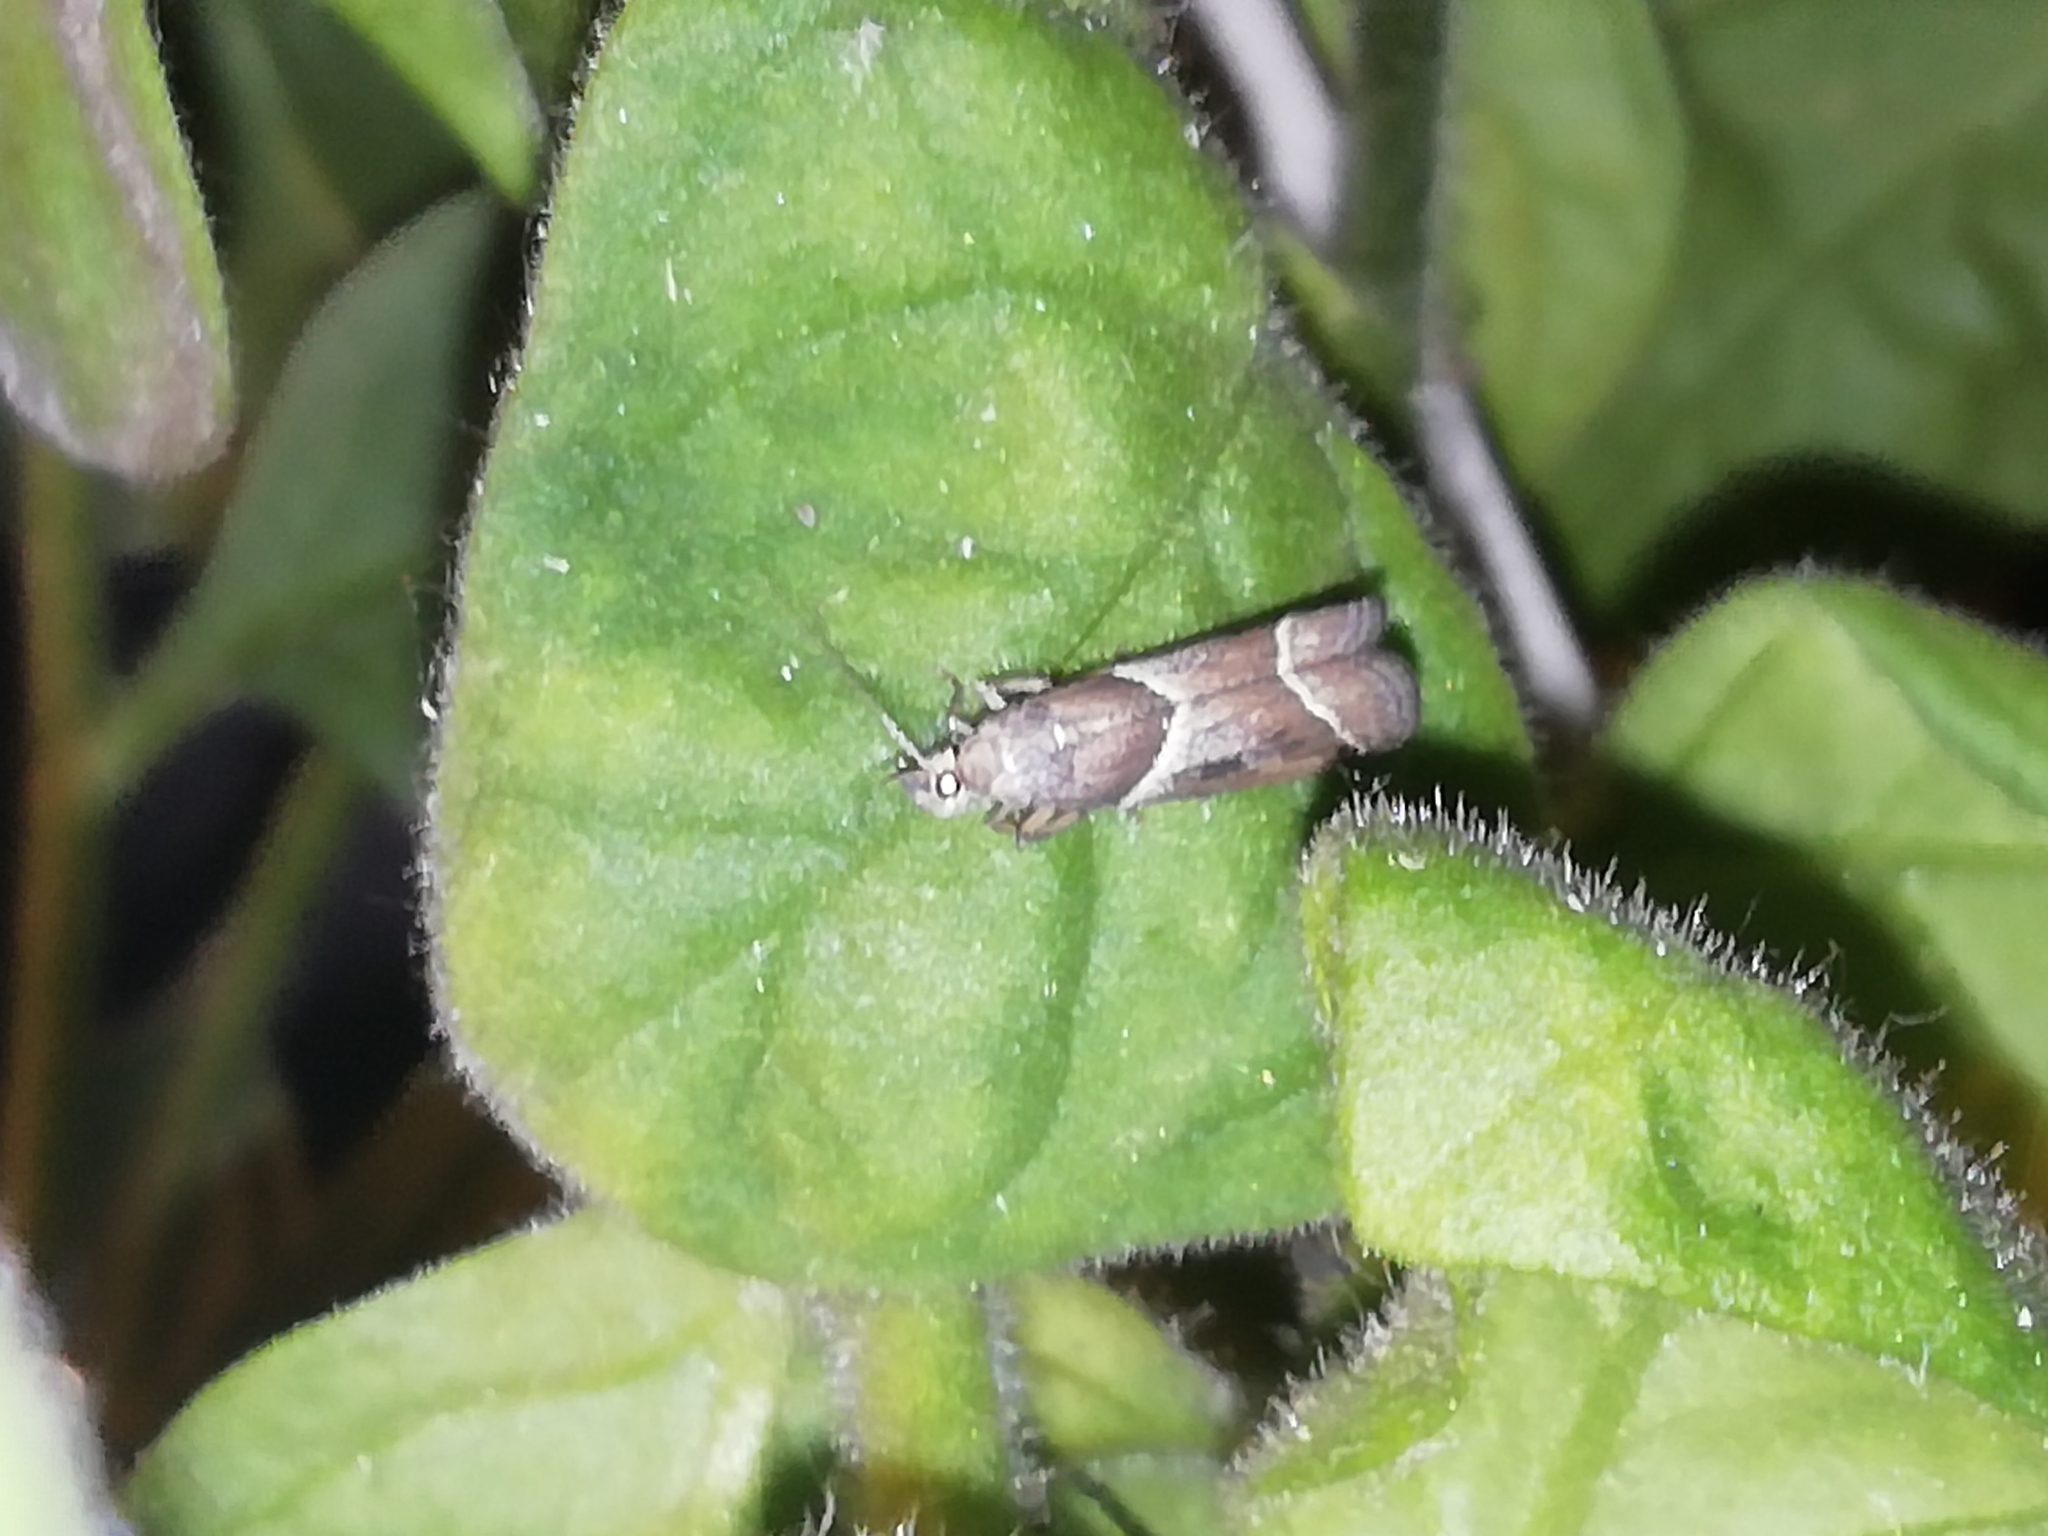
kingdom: Animalia
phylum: Arthropoda
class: Insecta
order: Lepidoptera
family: Pyralidae
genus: Nyctegretis
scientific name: Nyctegretis lineana
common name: Agate knot-horn
